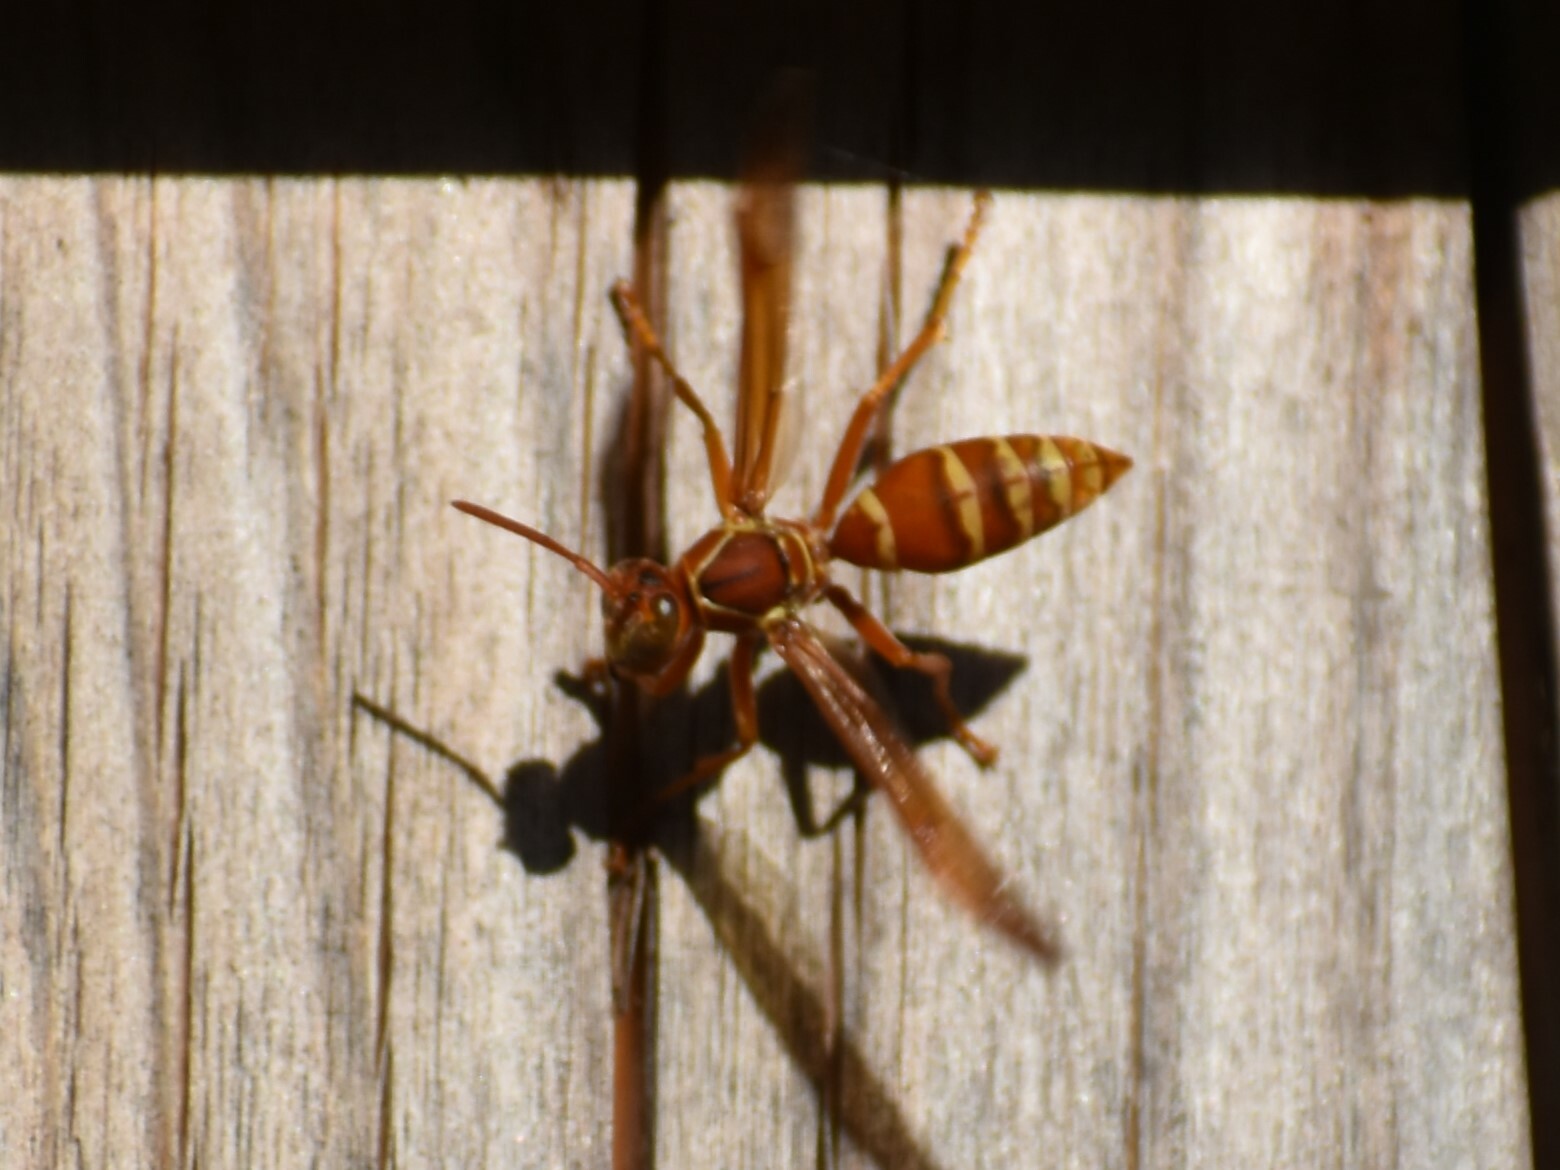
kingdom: Animalia
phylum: Arthropoda
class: Insecta
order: Hymenoptera
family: Eumenidae
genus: Polistes
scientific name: Polistes bellicosus
